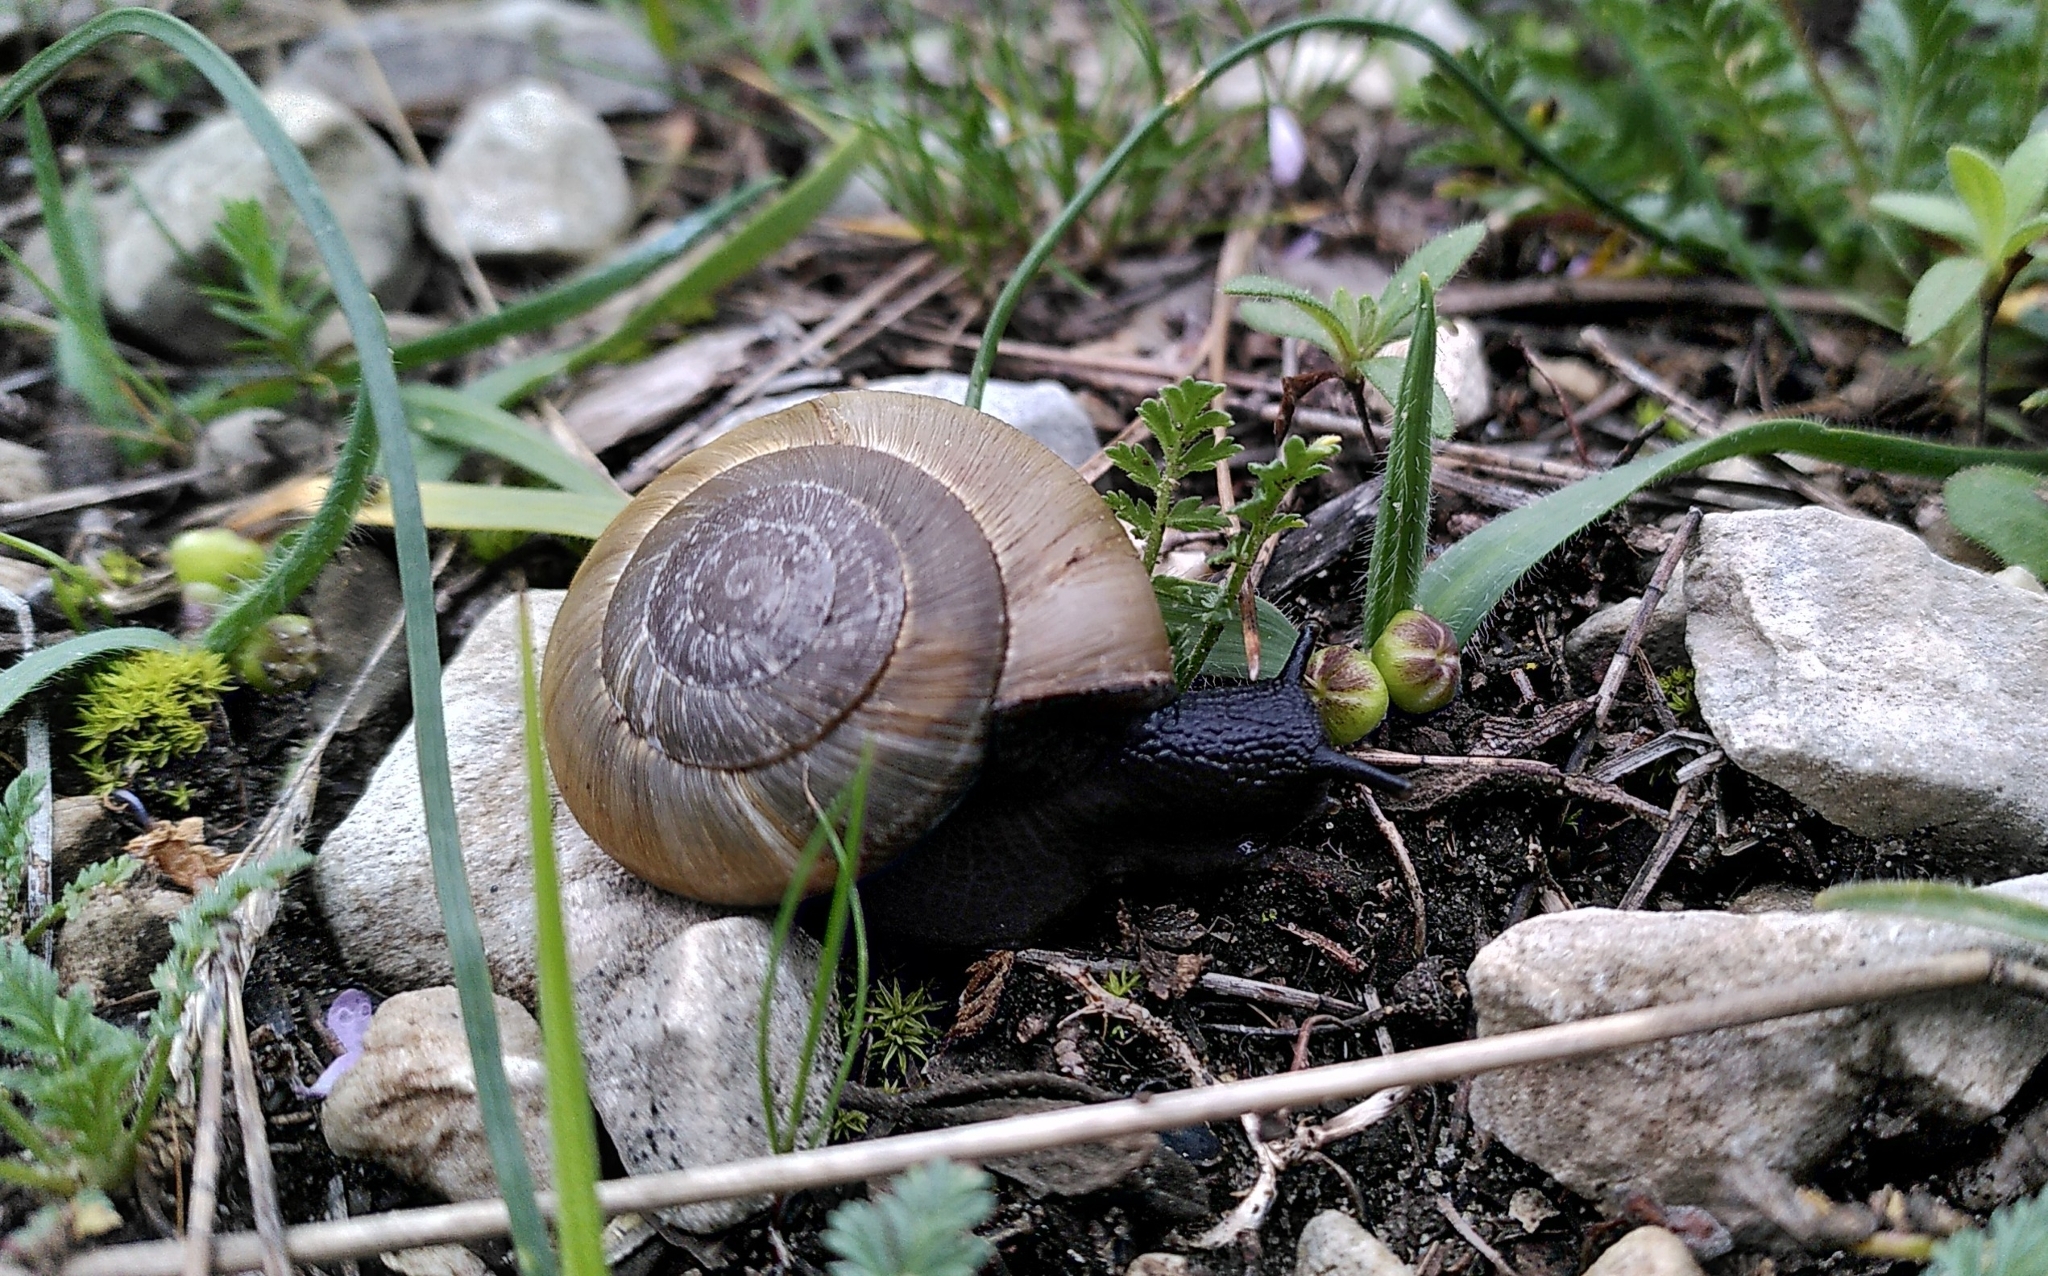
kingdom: Animalia
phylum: Mollusca
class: Gastropoda
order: Stylommatophora
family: Zonitidae
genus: Zonites
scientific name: Zonites algirus
